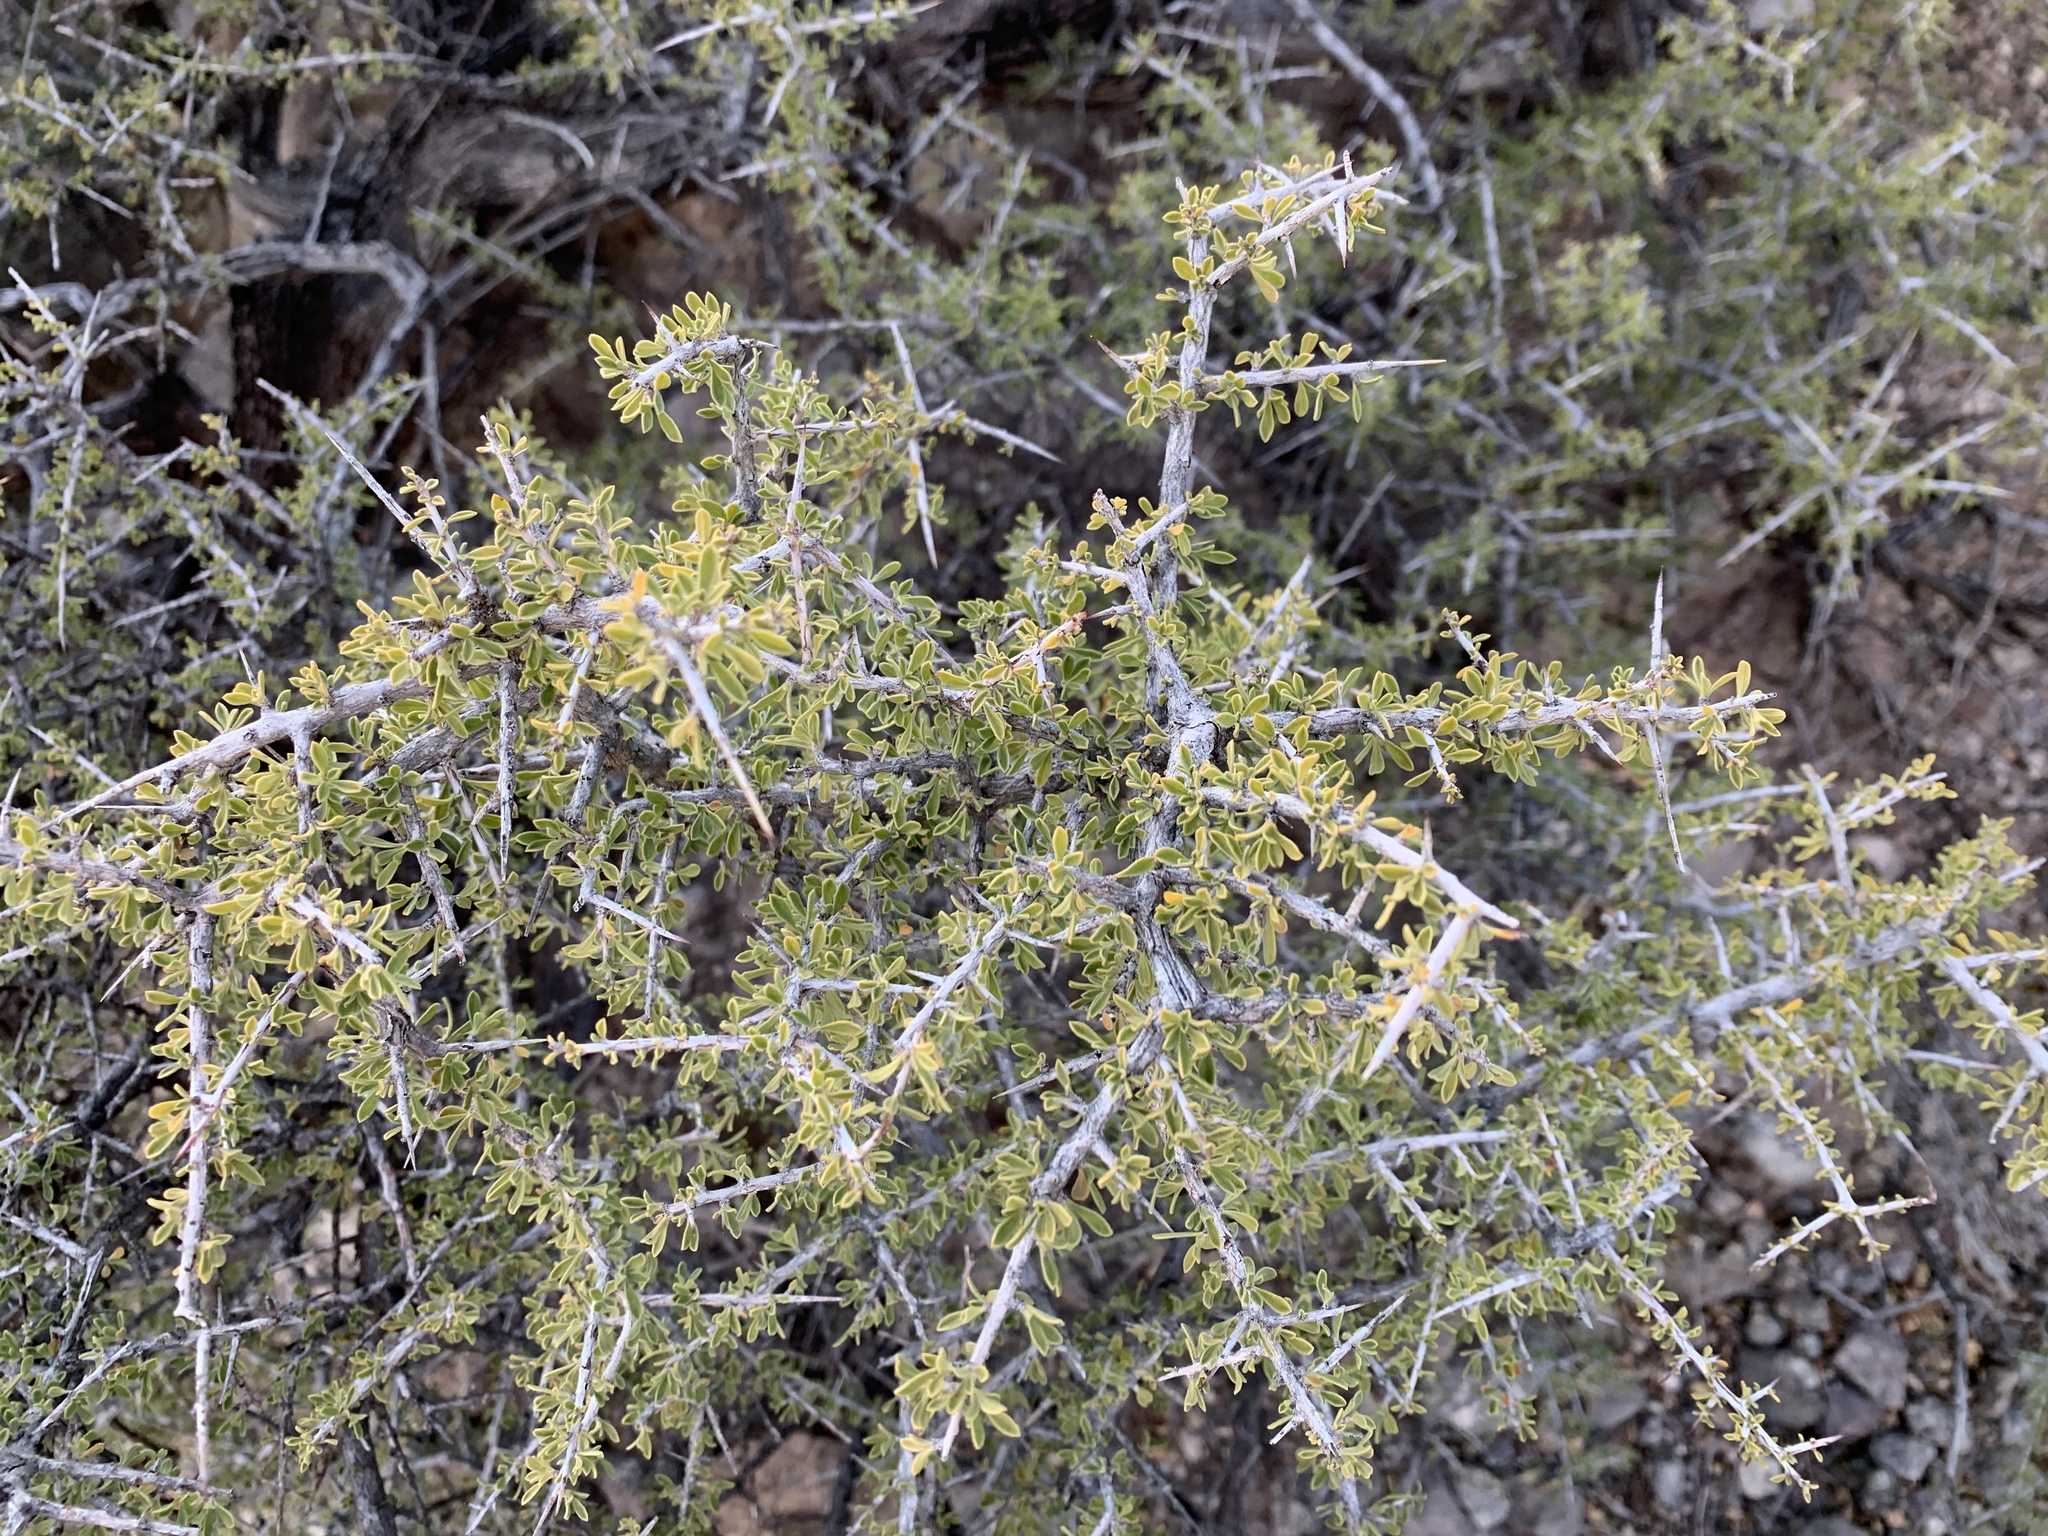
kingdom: Plantae
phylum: Tracheophyta
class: Magnoliopsida
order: Rosales
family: Rhamnaceae
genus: Condalia
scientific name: Condalia warnockii
